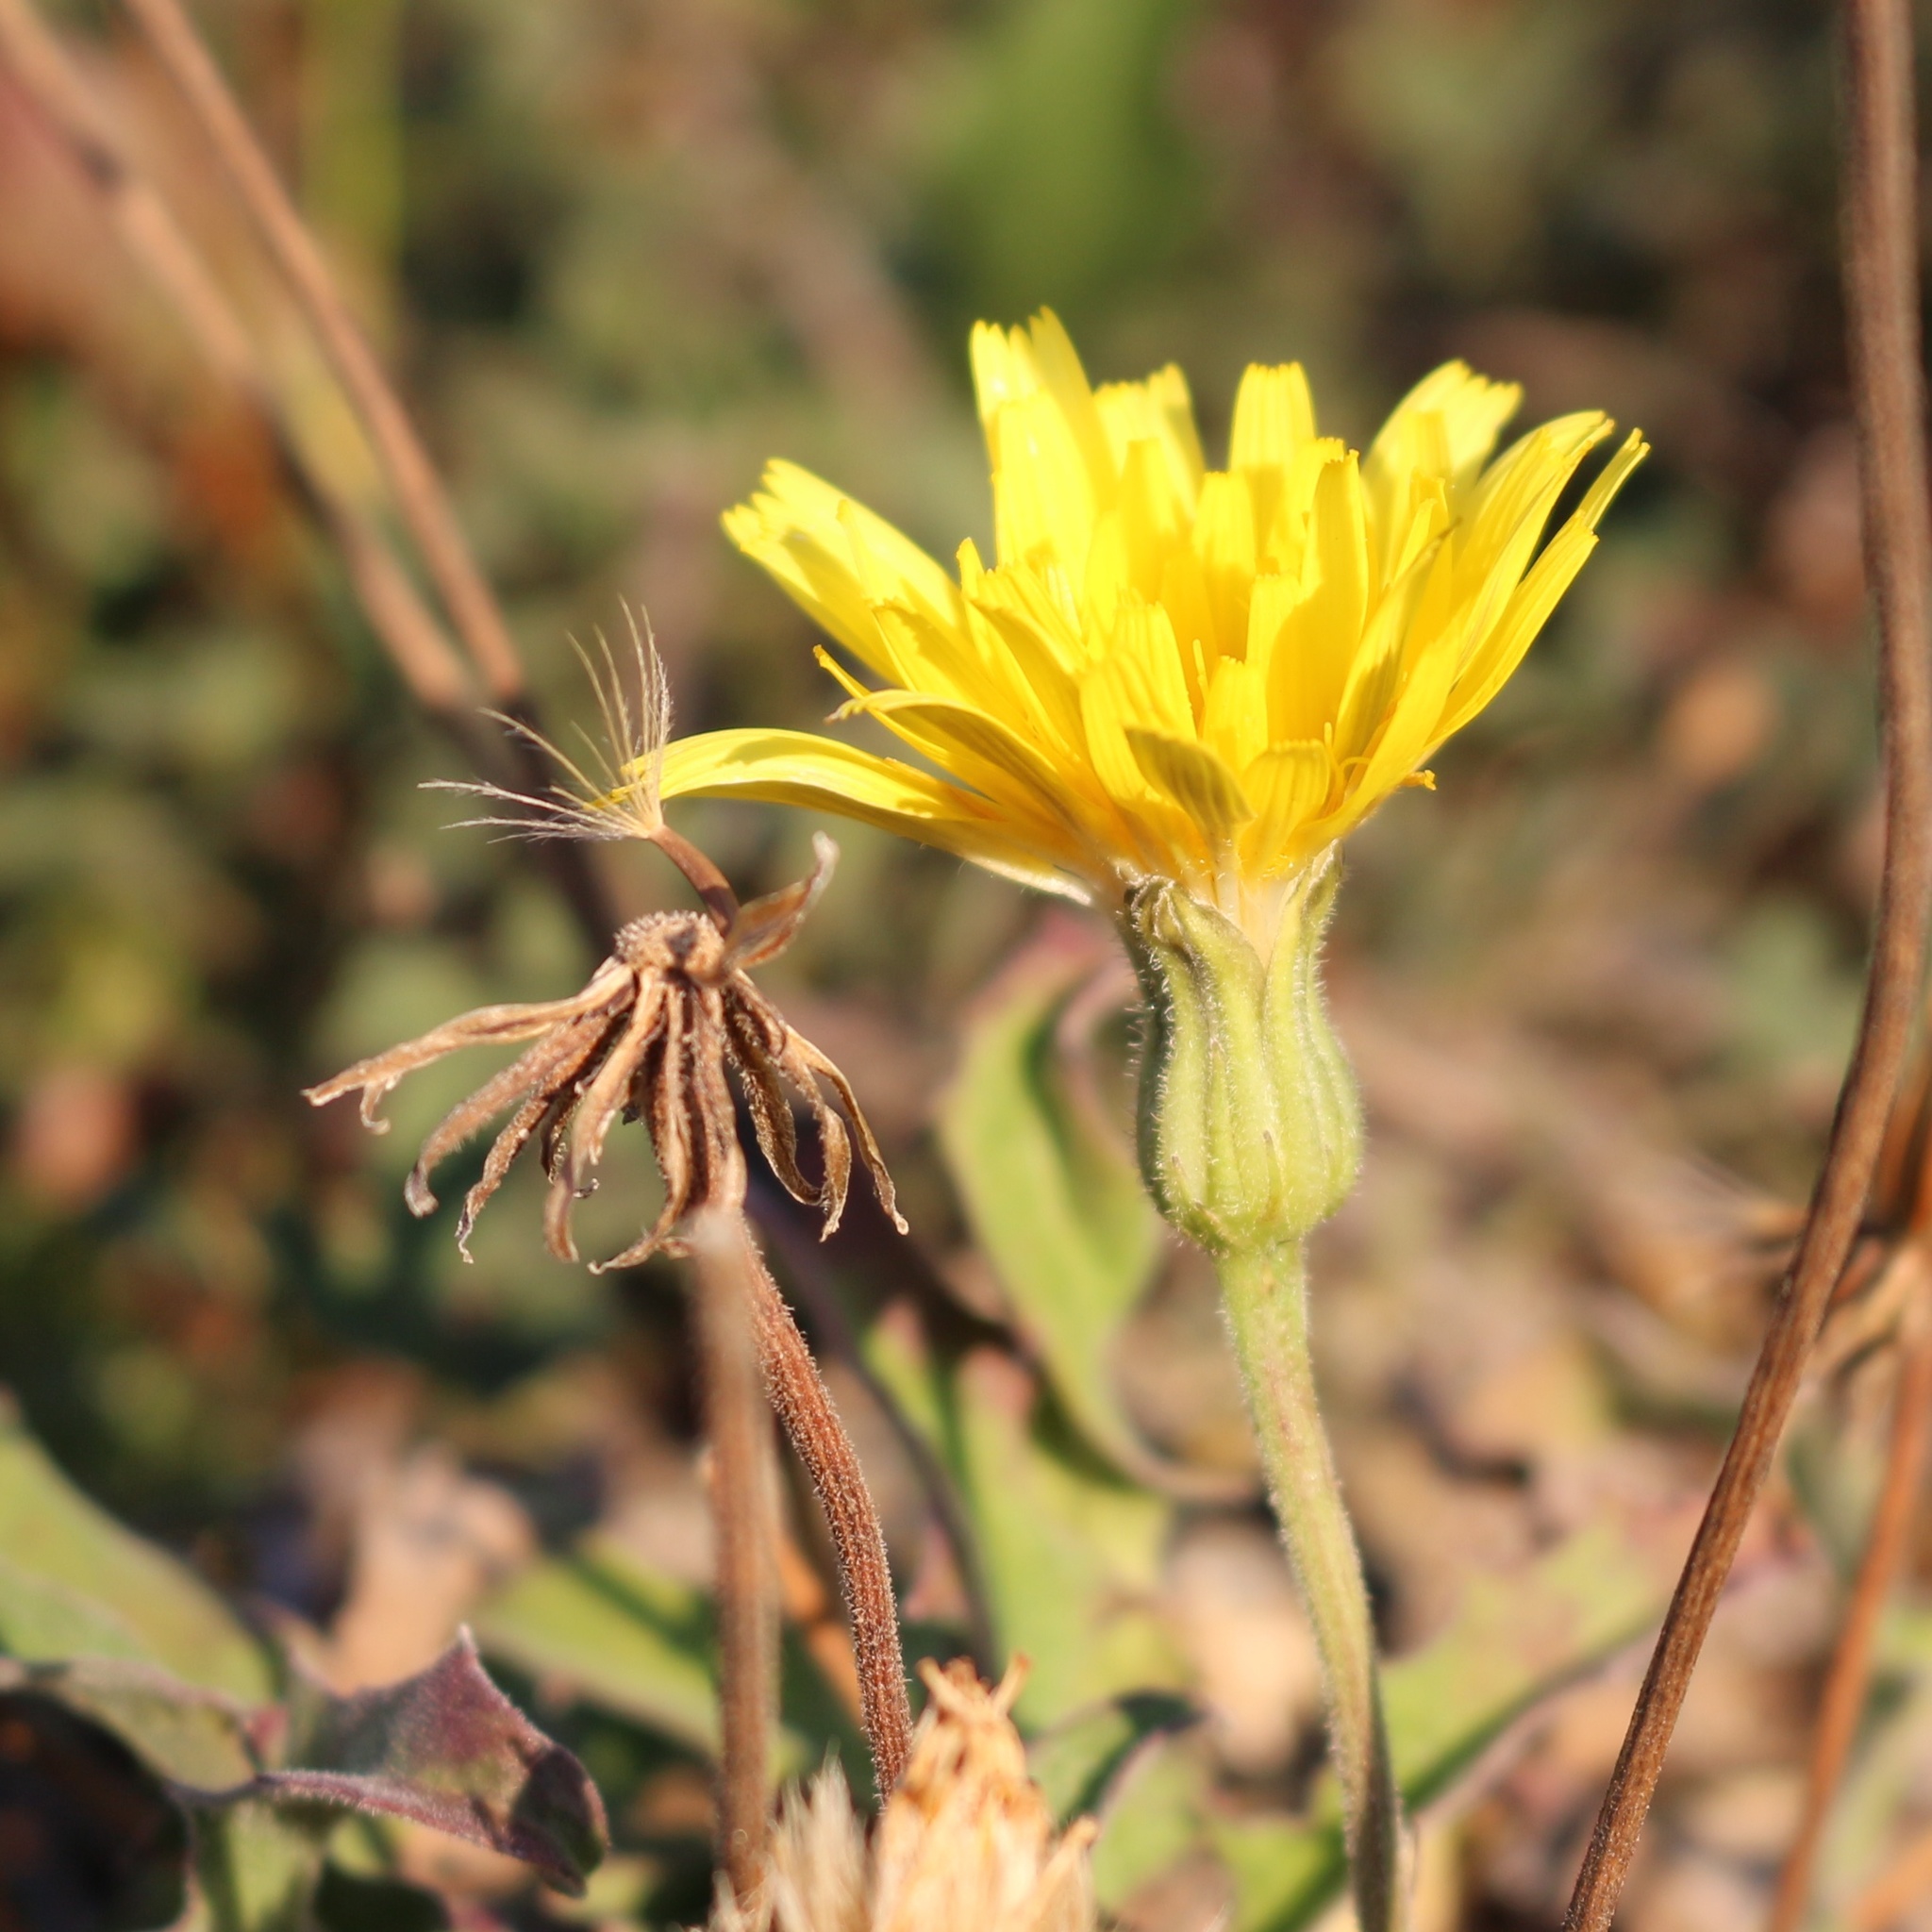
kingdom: Plantae
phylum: Tracheophyta
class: Magnoliopsida
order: Asterales
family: Asteraceae
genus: Leontodon
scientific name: Leontodon hispidus
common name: Rough hawkbit
